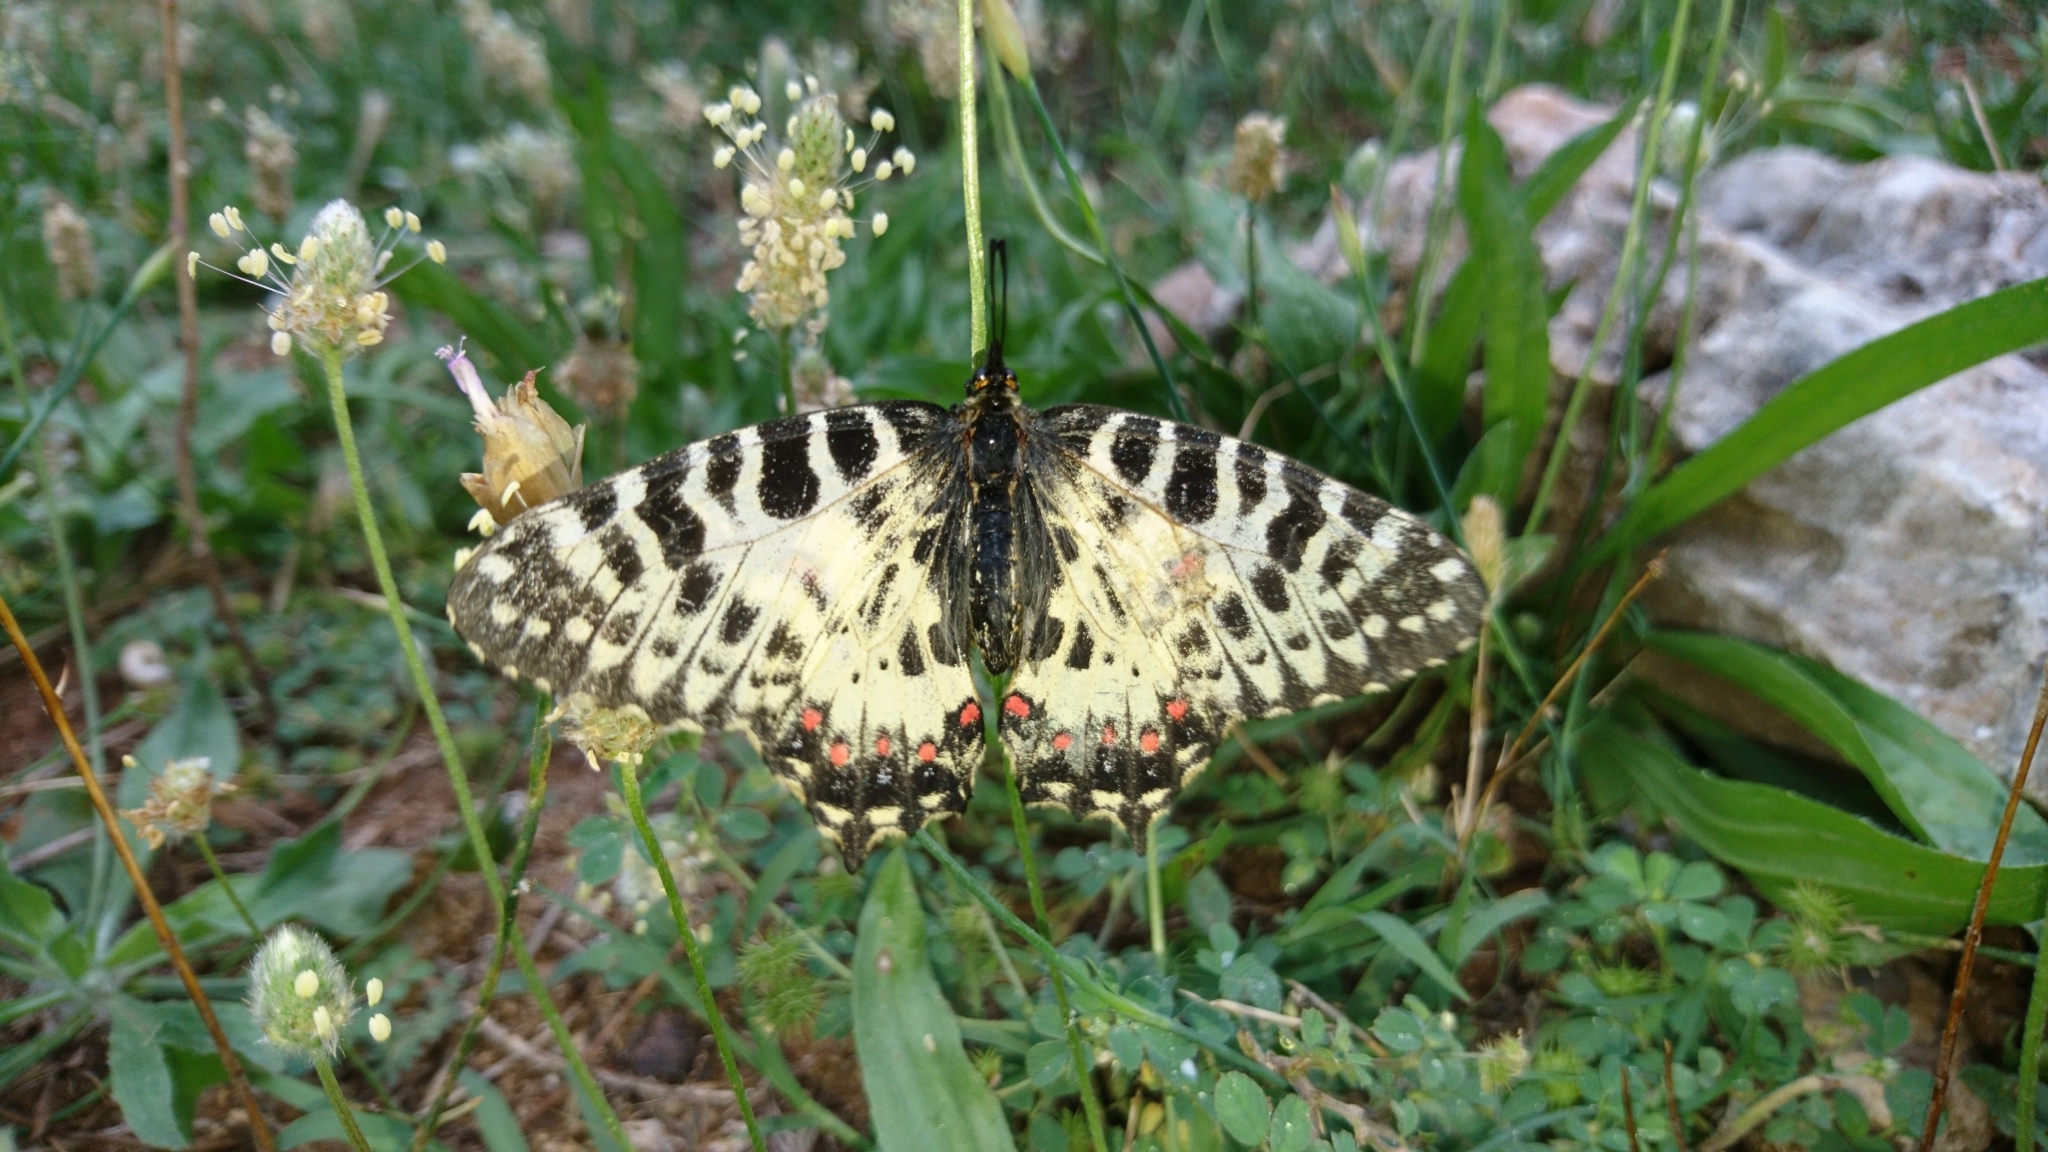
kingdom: Animalia
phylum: Arthropoda
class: Insecta
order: Lepidoptera
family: Papilionidae
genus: Zerynthia
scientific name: Zerynthia cerisy
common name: Eastern festoon
